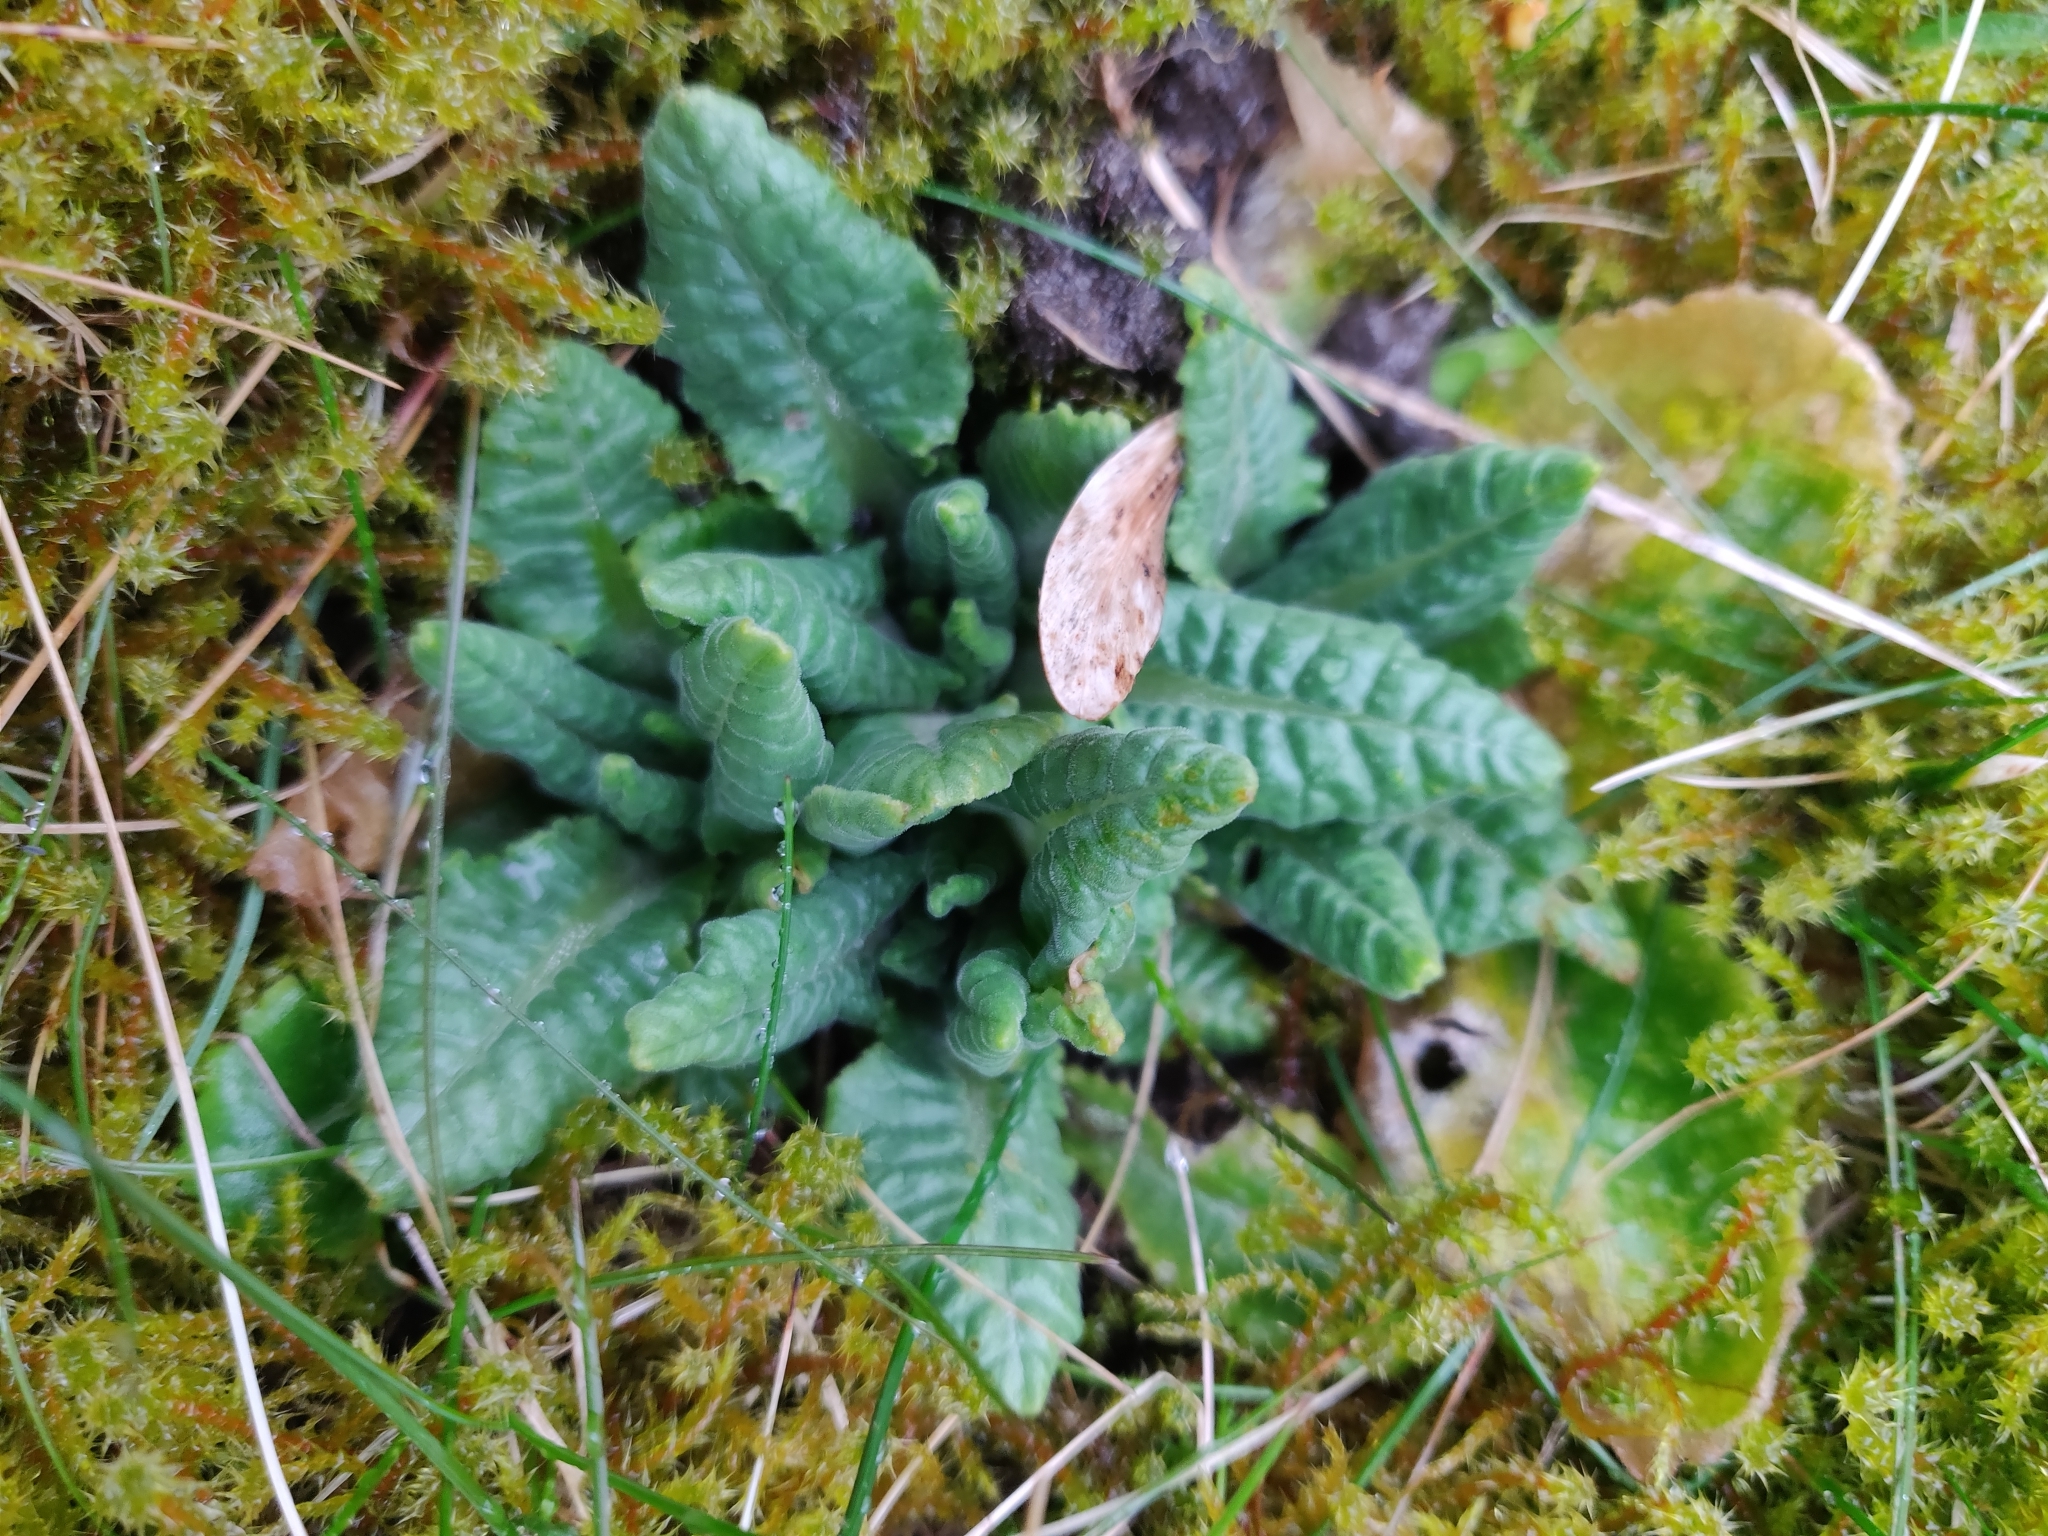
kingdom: Plantae
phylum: Tracheophyta
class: Magnoliopsida
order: Ericales
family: Primulaceae
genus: Primula
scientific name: Primula veris
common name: Cowslip
